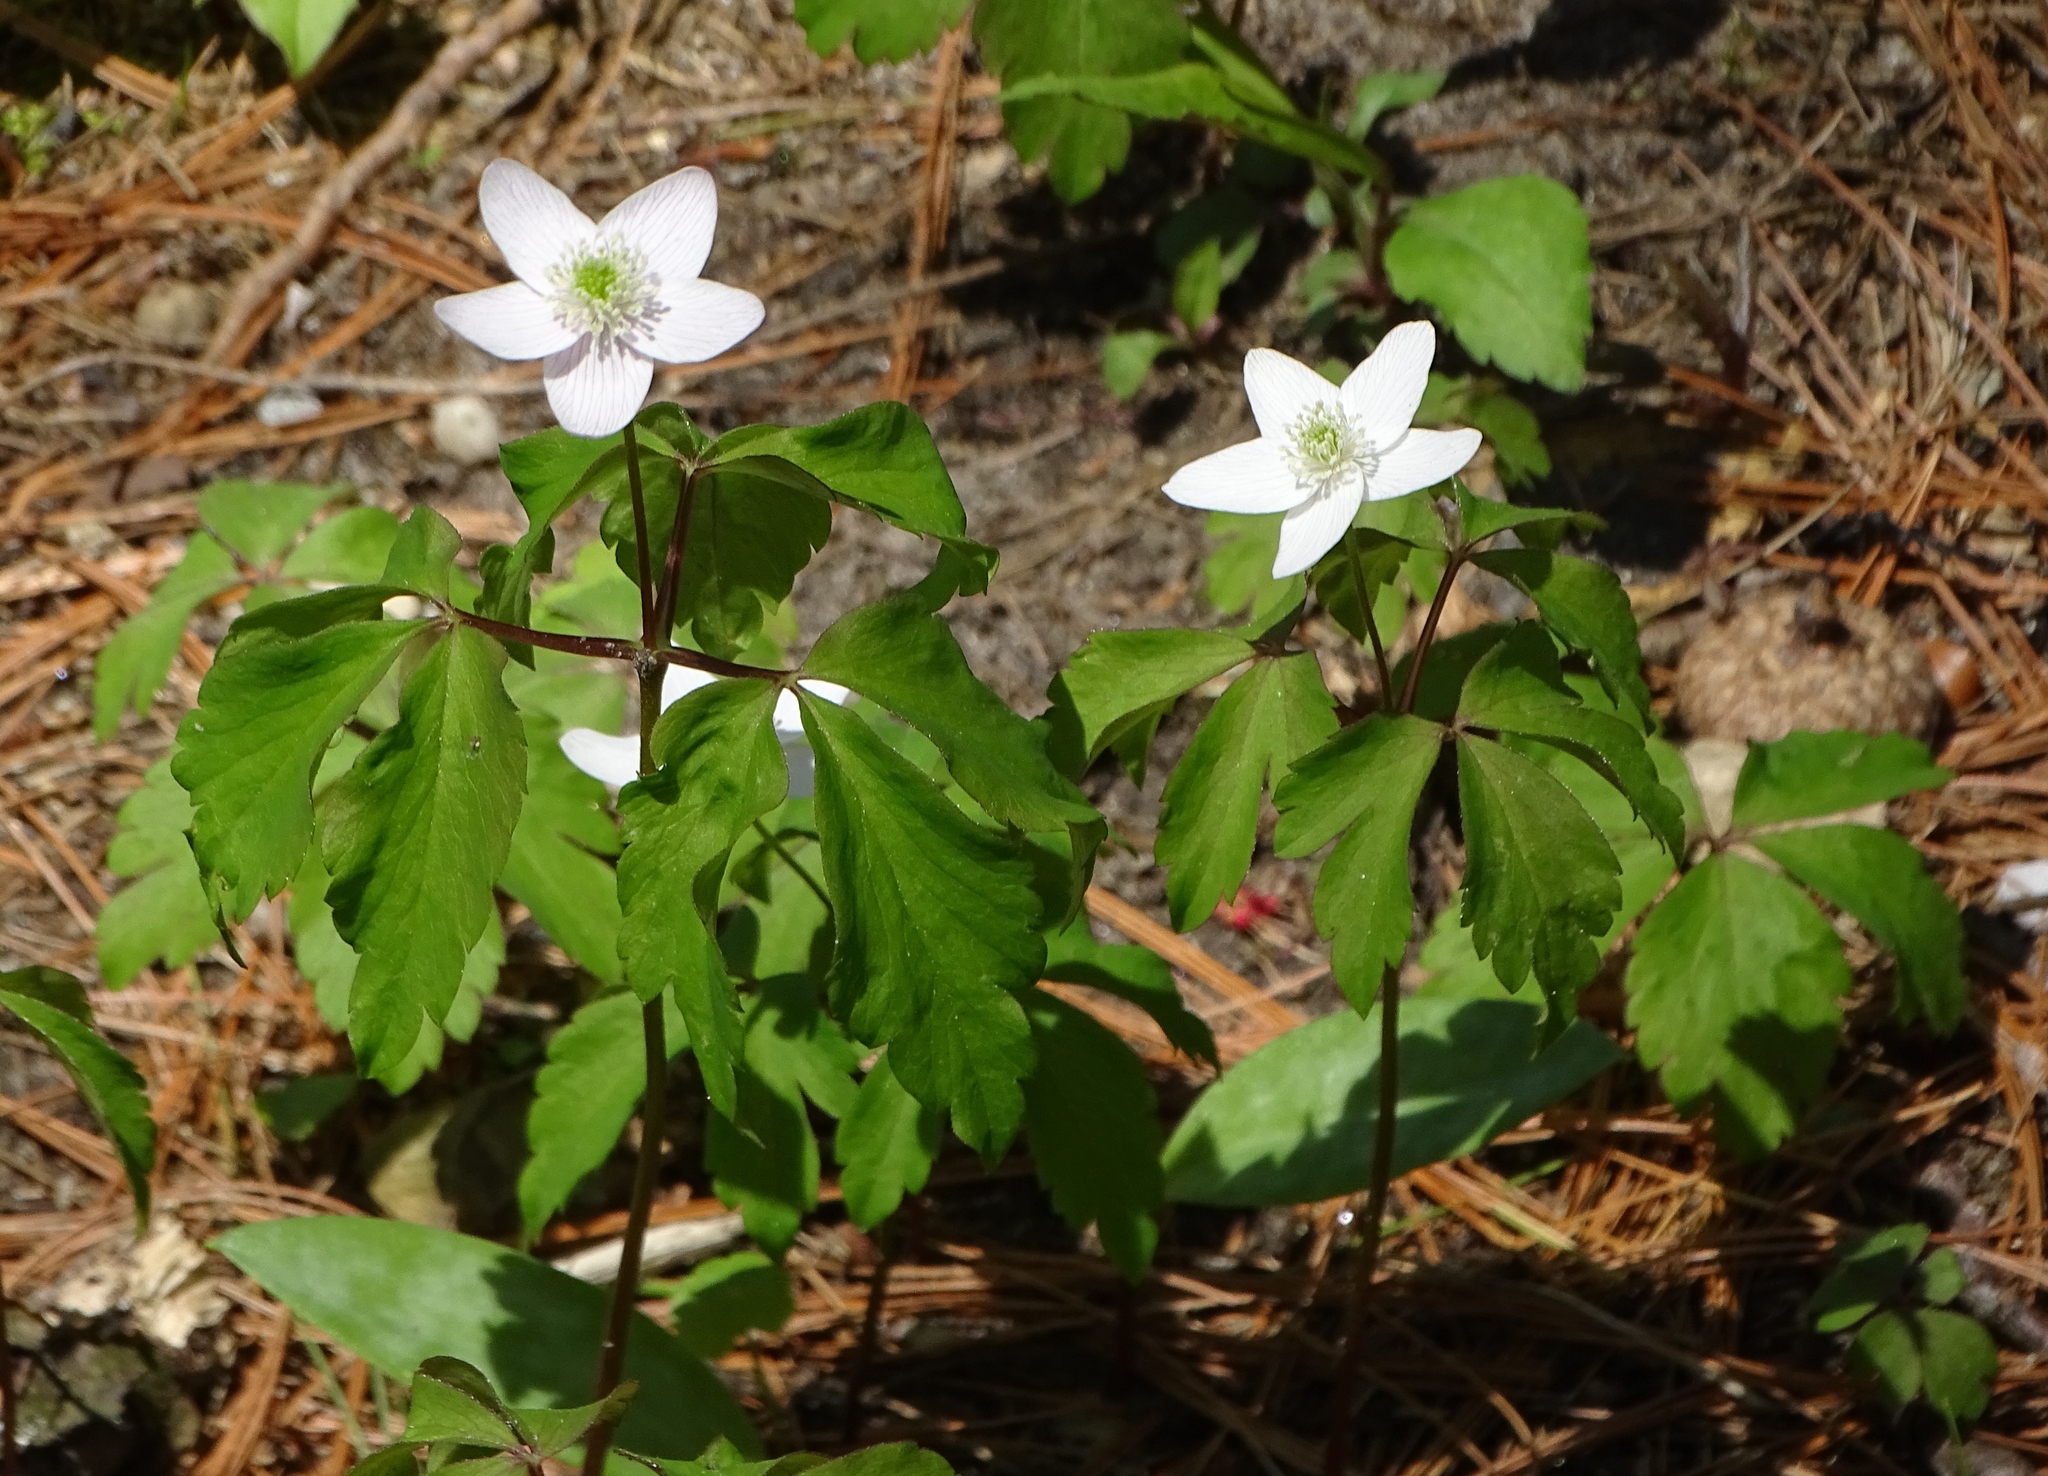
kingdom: Plantae
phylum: Tracheophyta
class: Magnoliopsida
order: Ranunculales
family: Ranunculaceae
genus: Anemone
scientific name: Anemone quinquefolia
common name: Wood anemone
